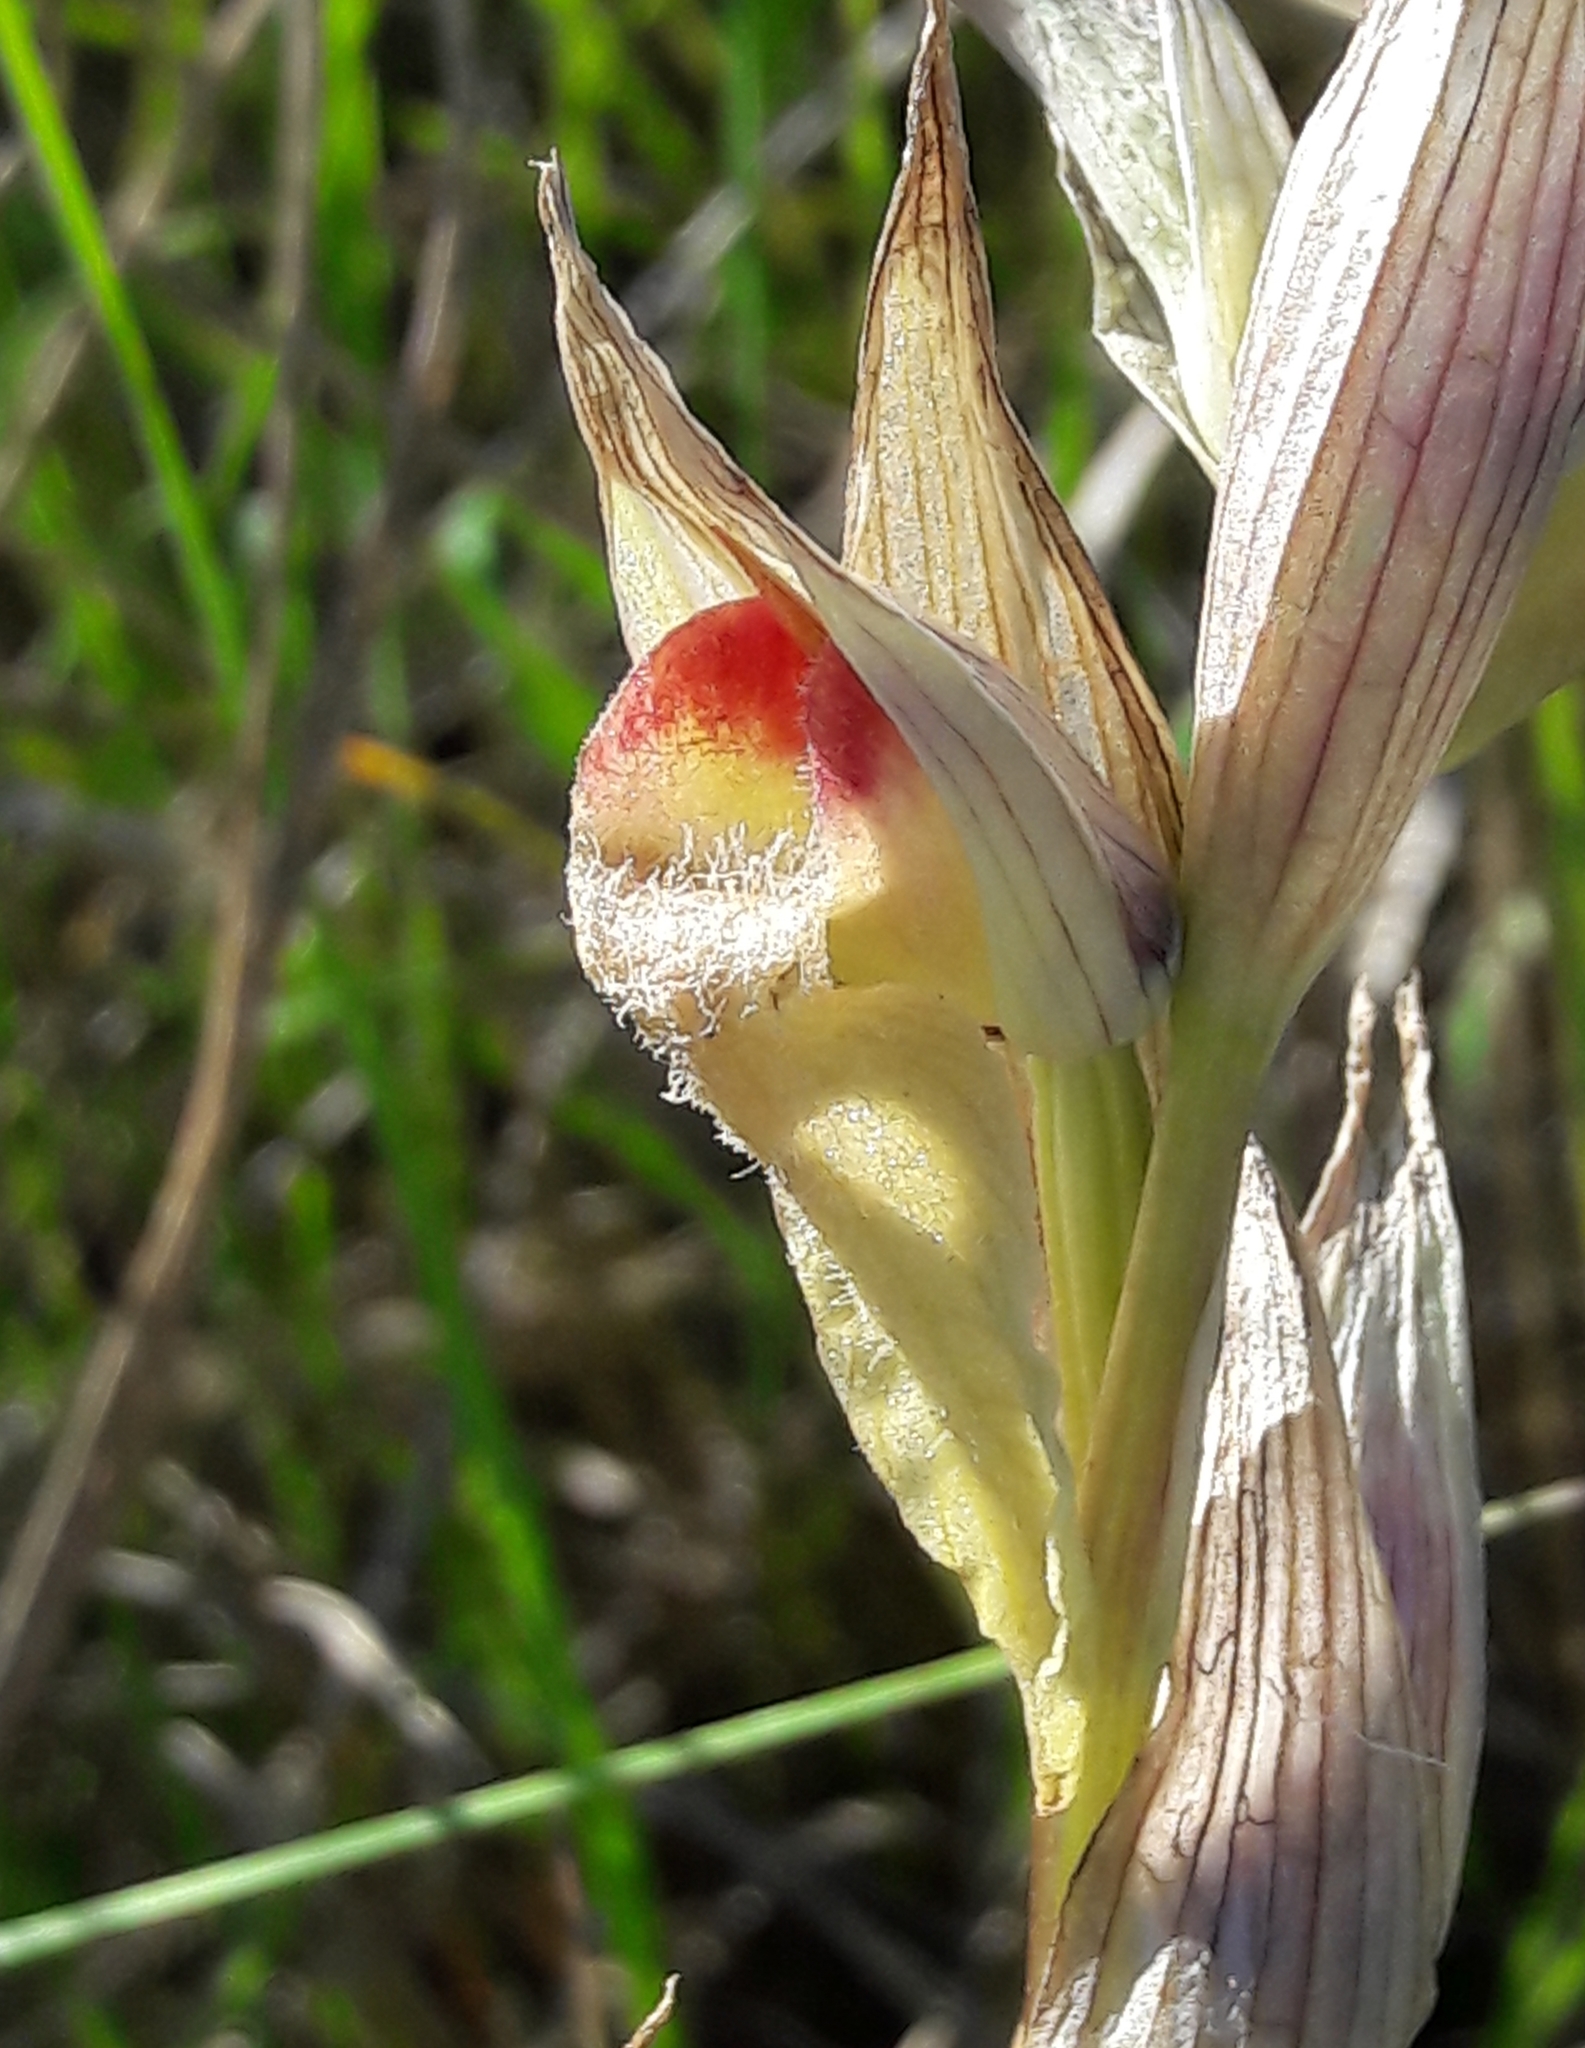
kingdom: Plantae
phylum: Tracheophyta
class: Liliopsida
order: Asparagales
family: Orchidaceae
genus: Serapias
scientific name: Serapias vomeracea
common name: Long-lipped tongue-orchid
